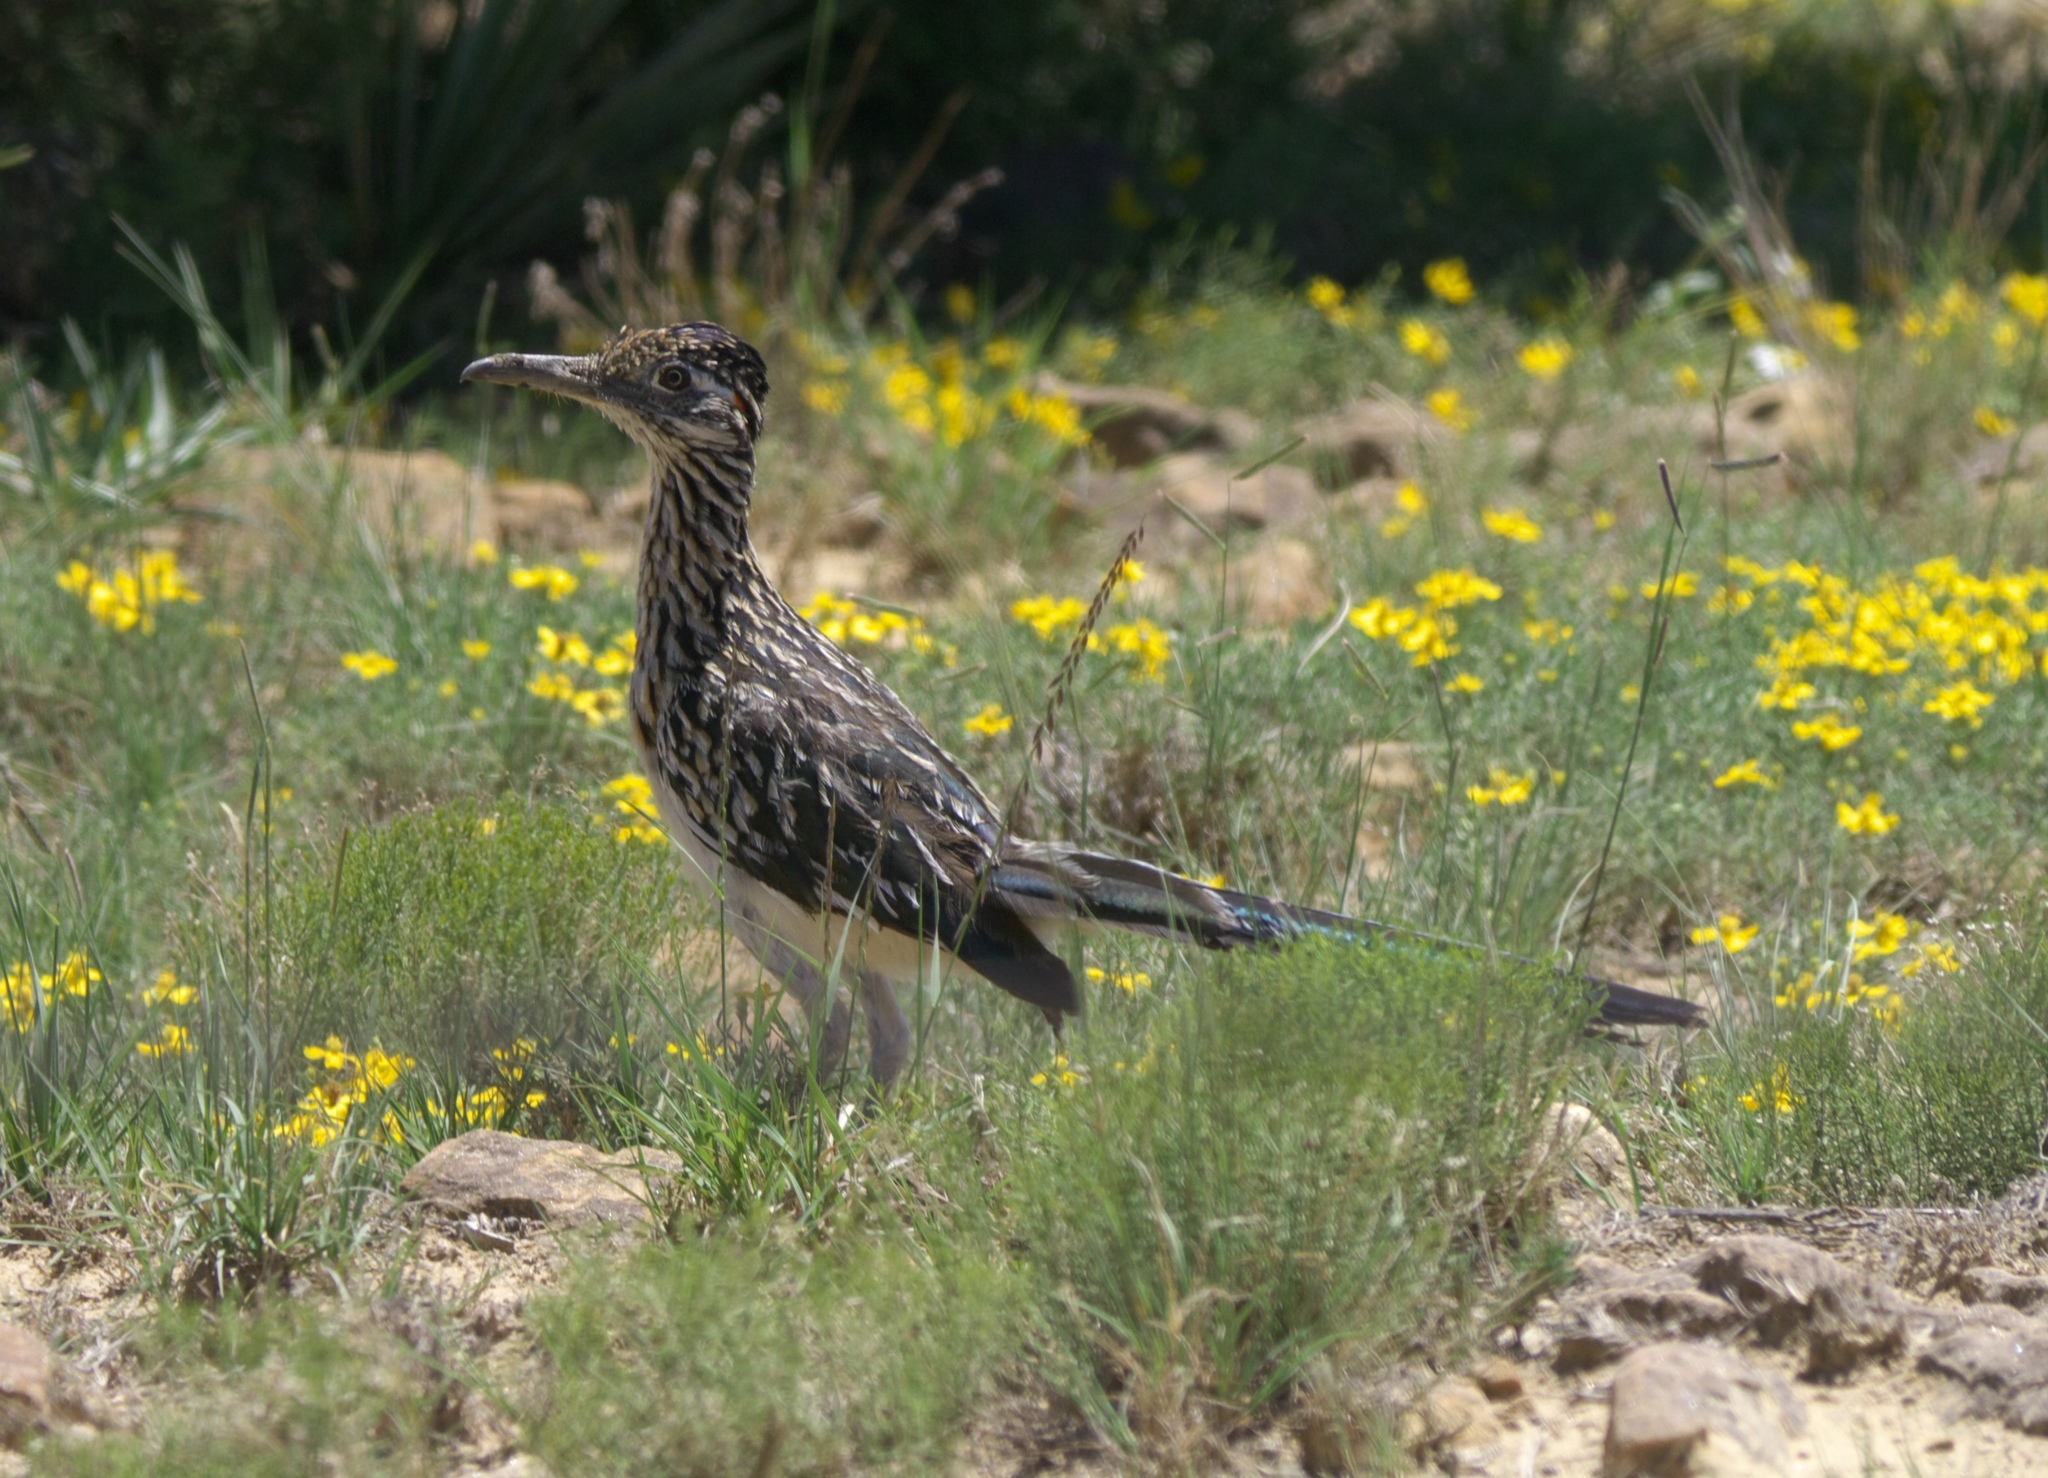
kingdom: Animalia
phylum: Chordata
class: Aves
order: Cuculiformes
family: Cuculidae
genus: Geococcyx
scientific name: Geococcyx californianus
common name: Greater roadrunner
